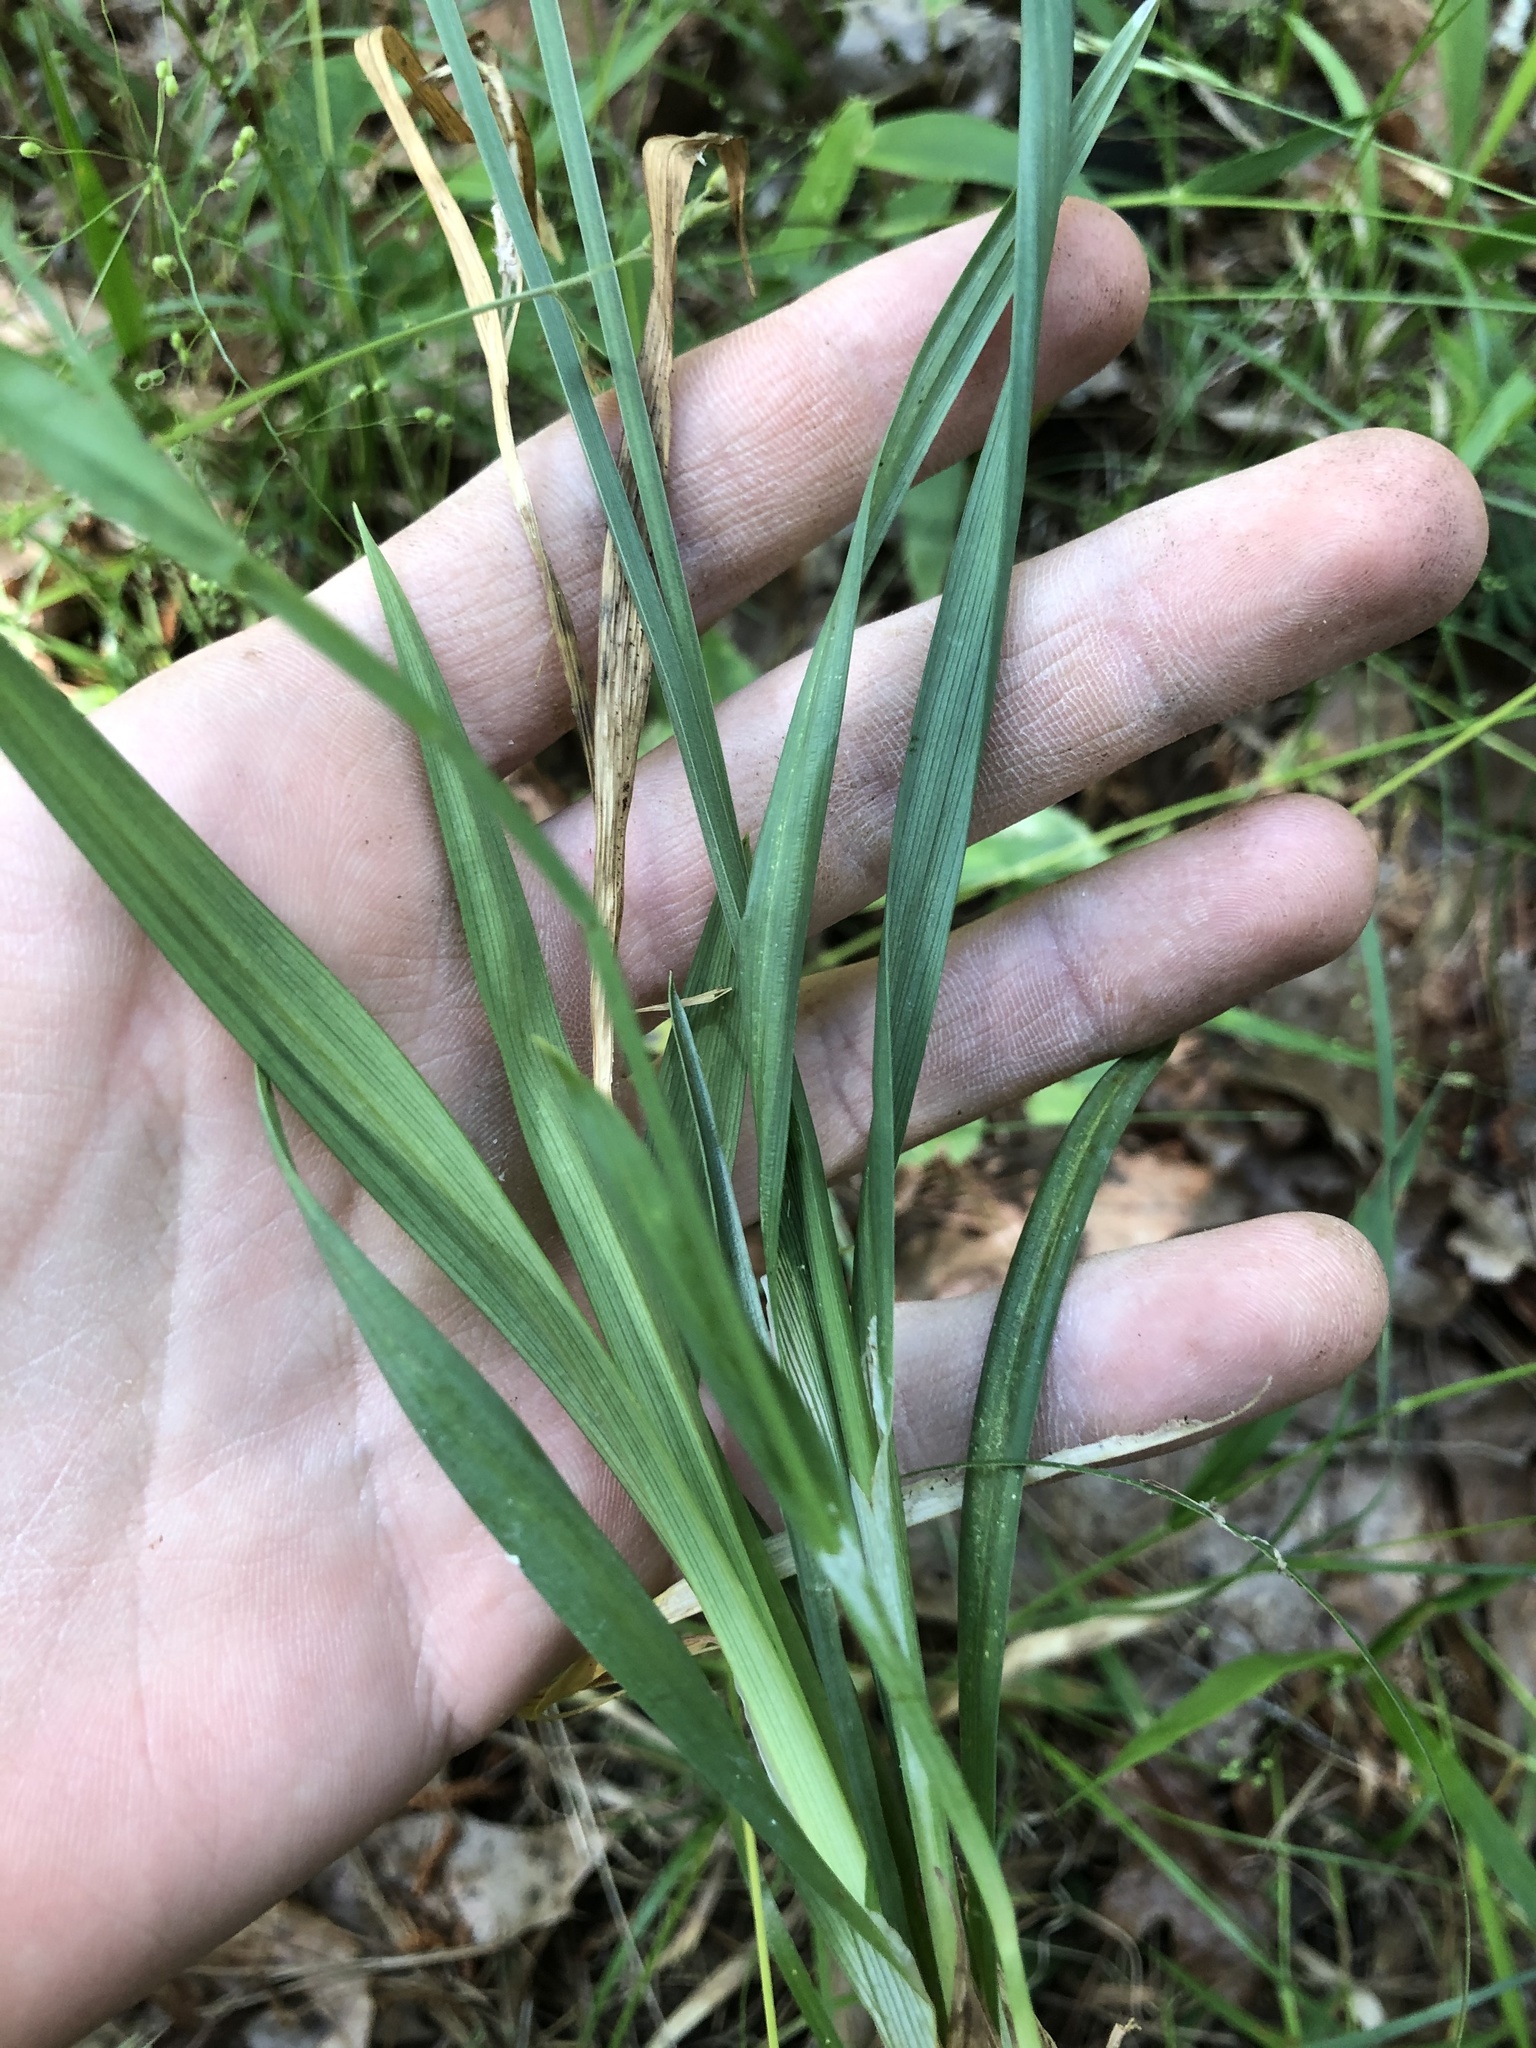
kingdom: Plantae
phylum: Tracheophyta
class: Liliopsida
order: Poales
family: Cyperaceae
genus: Carex
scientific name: Carex striatula
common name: Lined sedge
